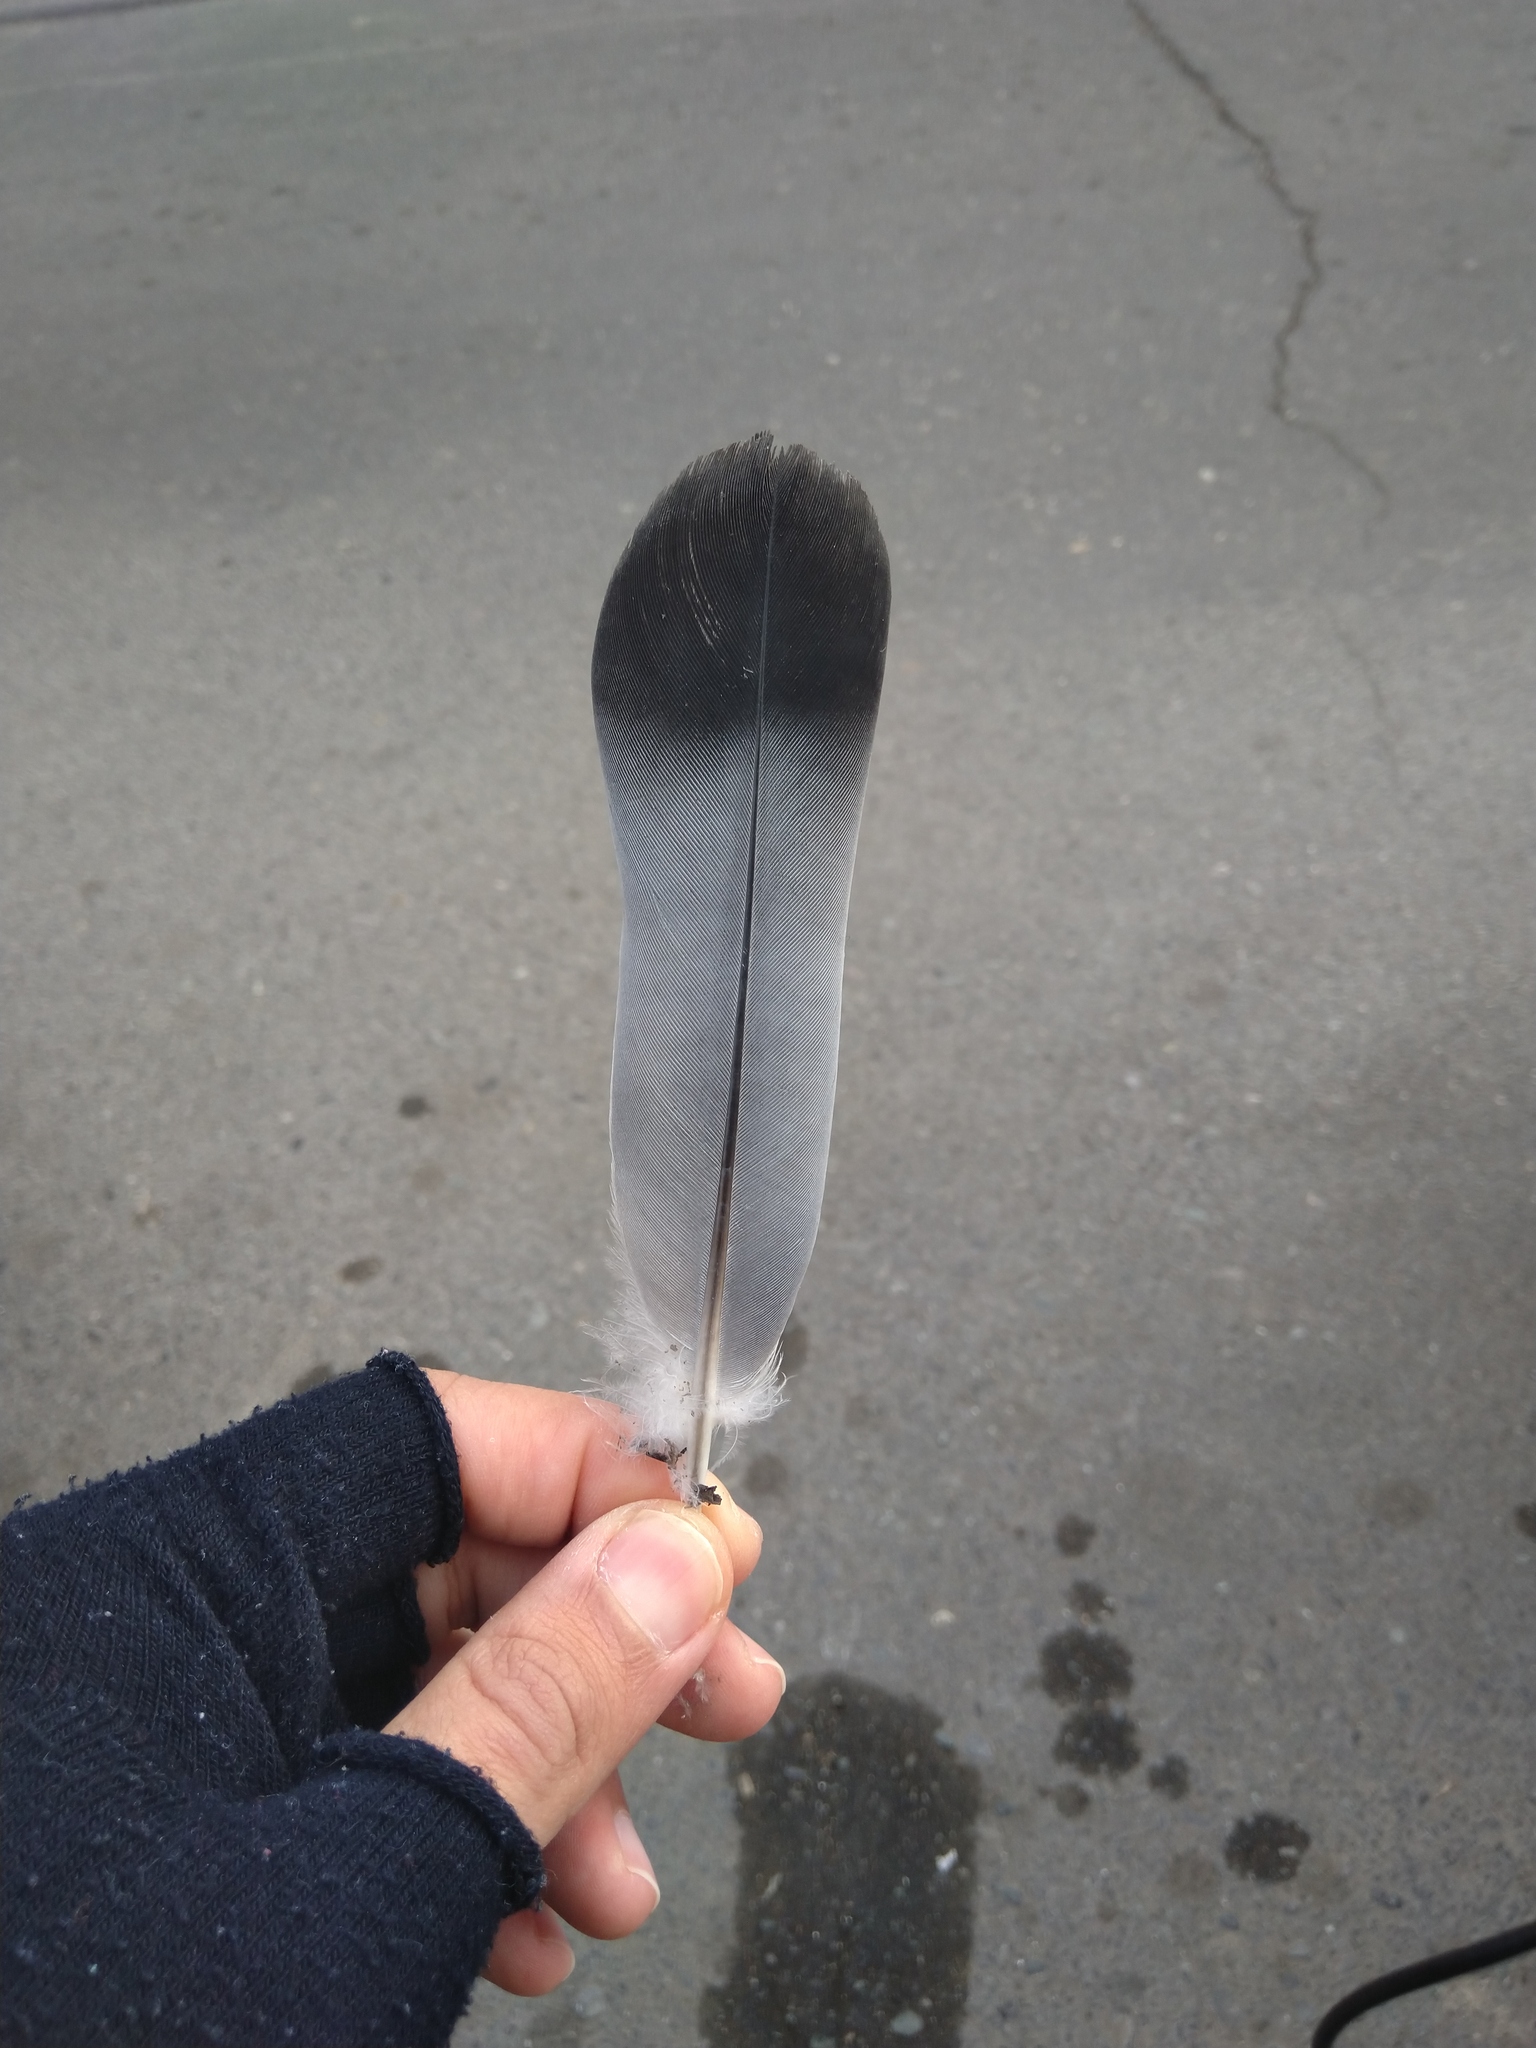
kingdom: Animalia
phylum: Chordata
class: Aves
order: Columbiformes
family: Columbidae
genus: Columba
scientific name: Columba livia
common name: Rock pigeon
